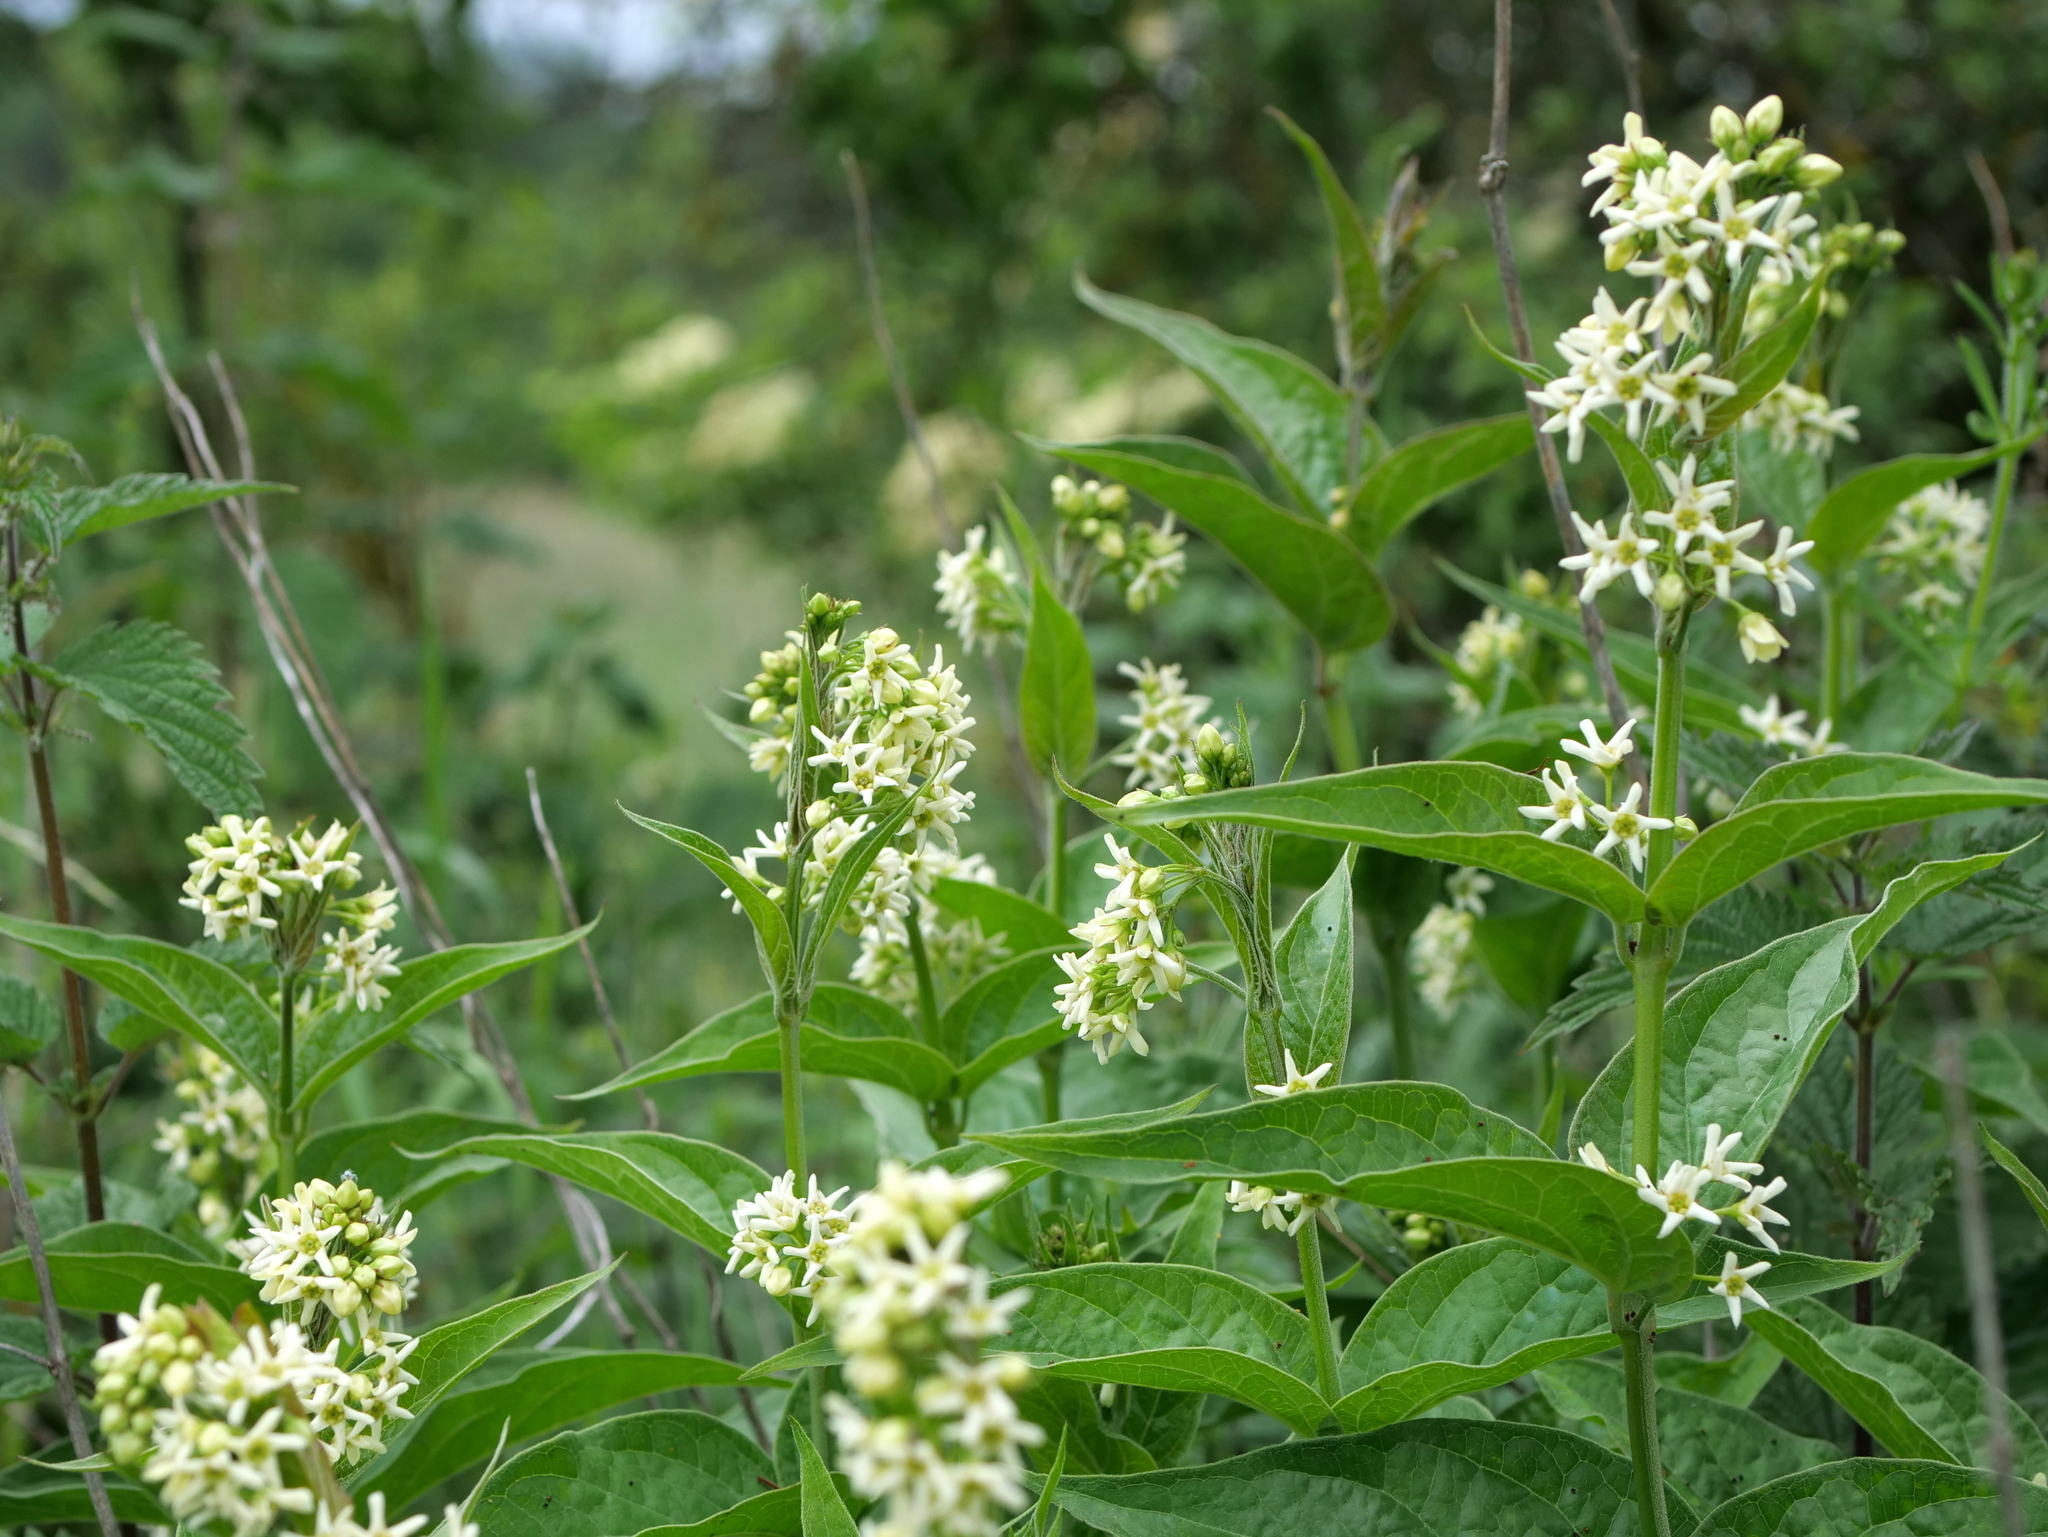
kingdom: Plantae
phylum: Tracheophyta
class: Magnoliopsida
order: Gentianales
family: Apocynaceae
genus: Vincetoxicum
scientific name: Vincetoxicum hirundinaria
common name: White swallowwort
